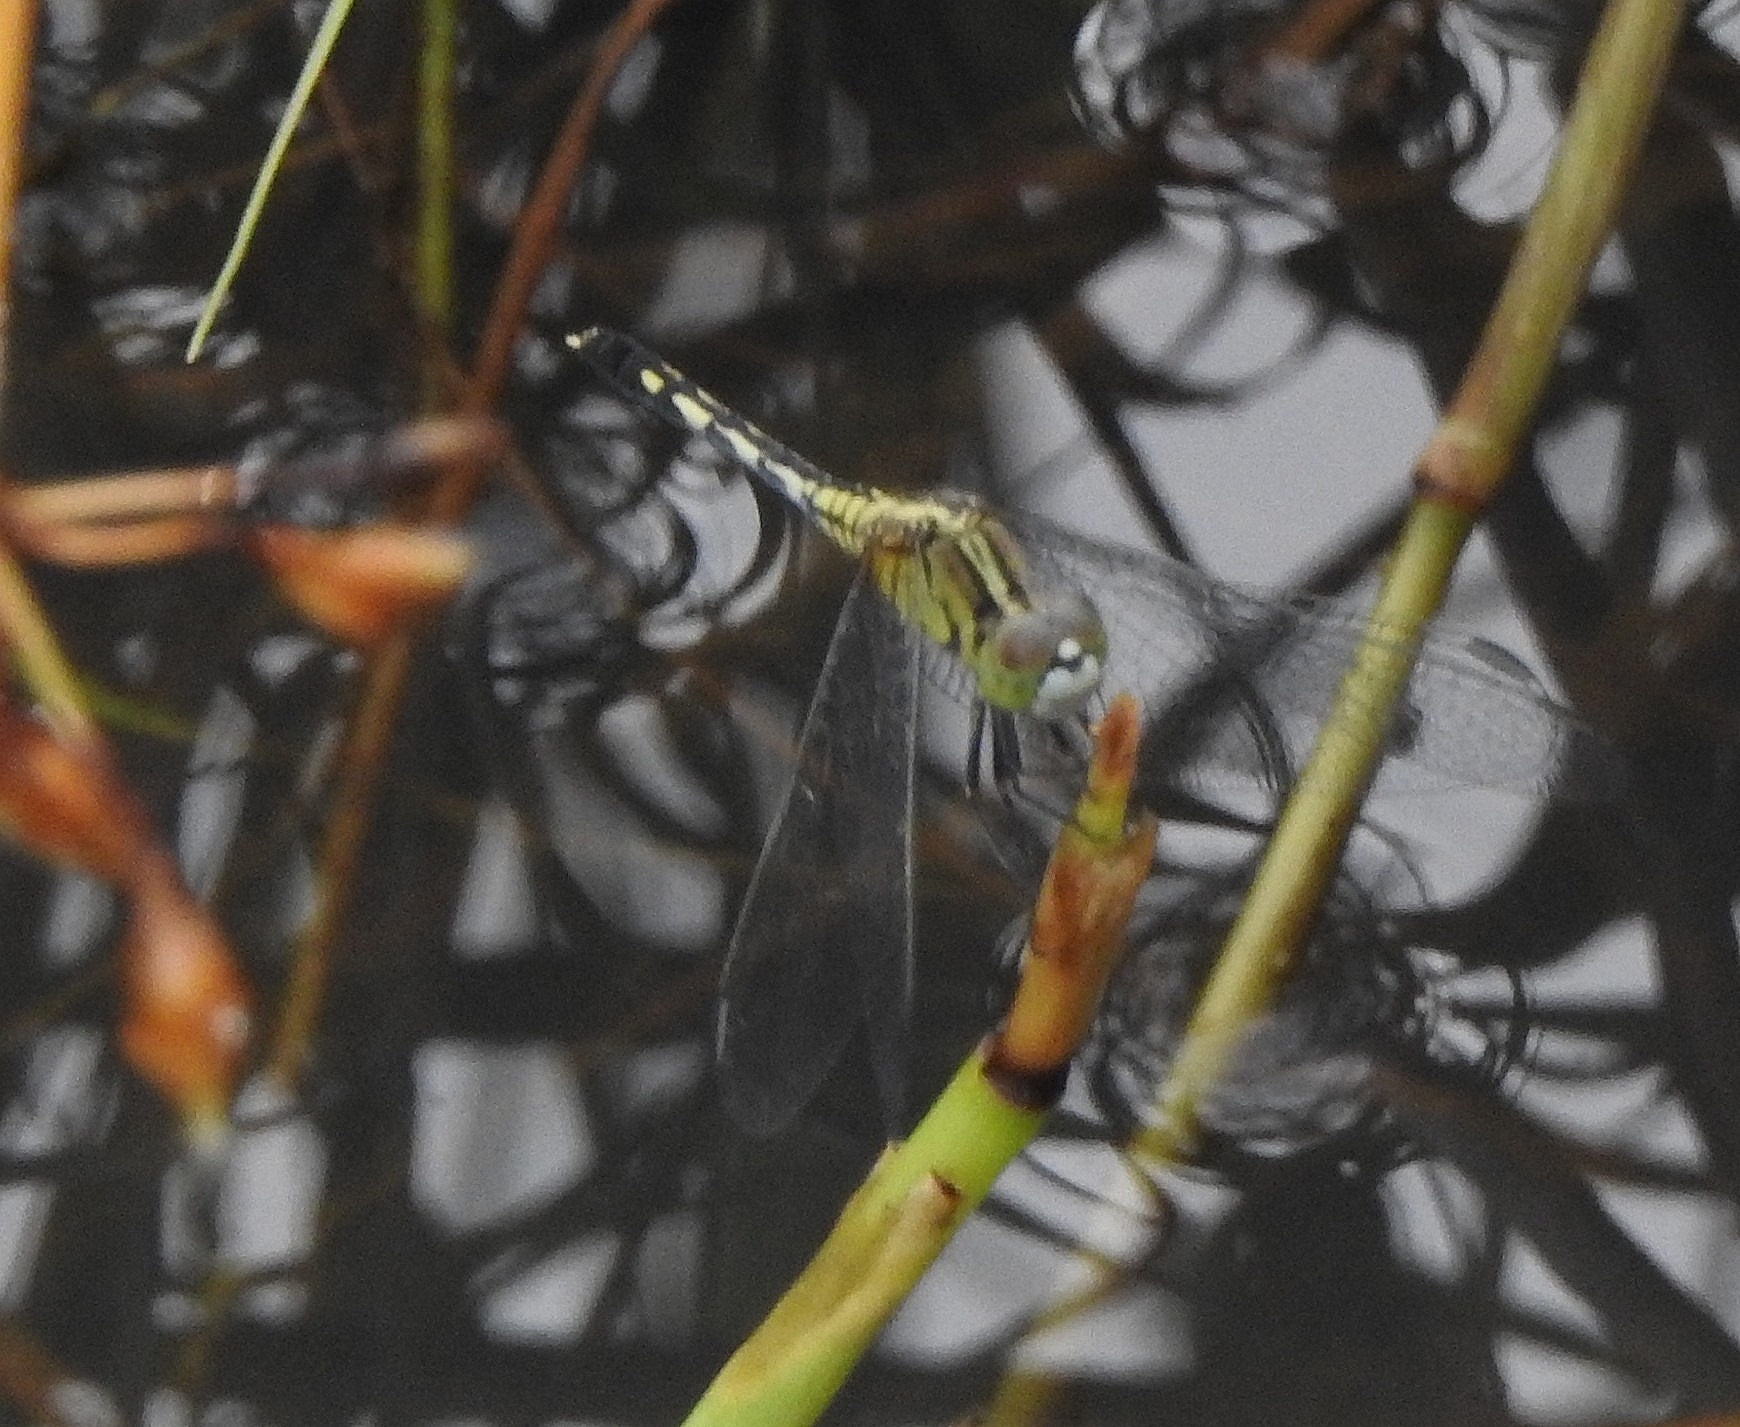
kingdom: Animalia
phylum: Arthropoda
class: Insecta
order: Odonata
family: Libellulidae
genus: Diplacodes
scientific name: Diplacodes trivialis
